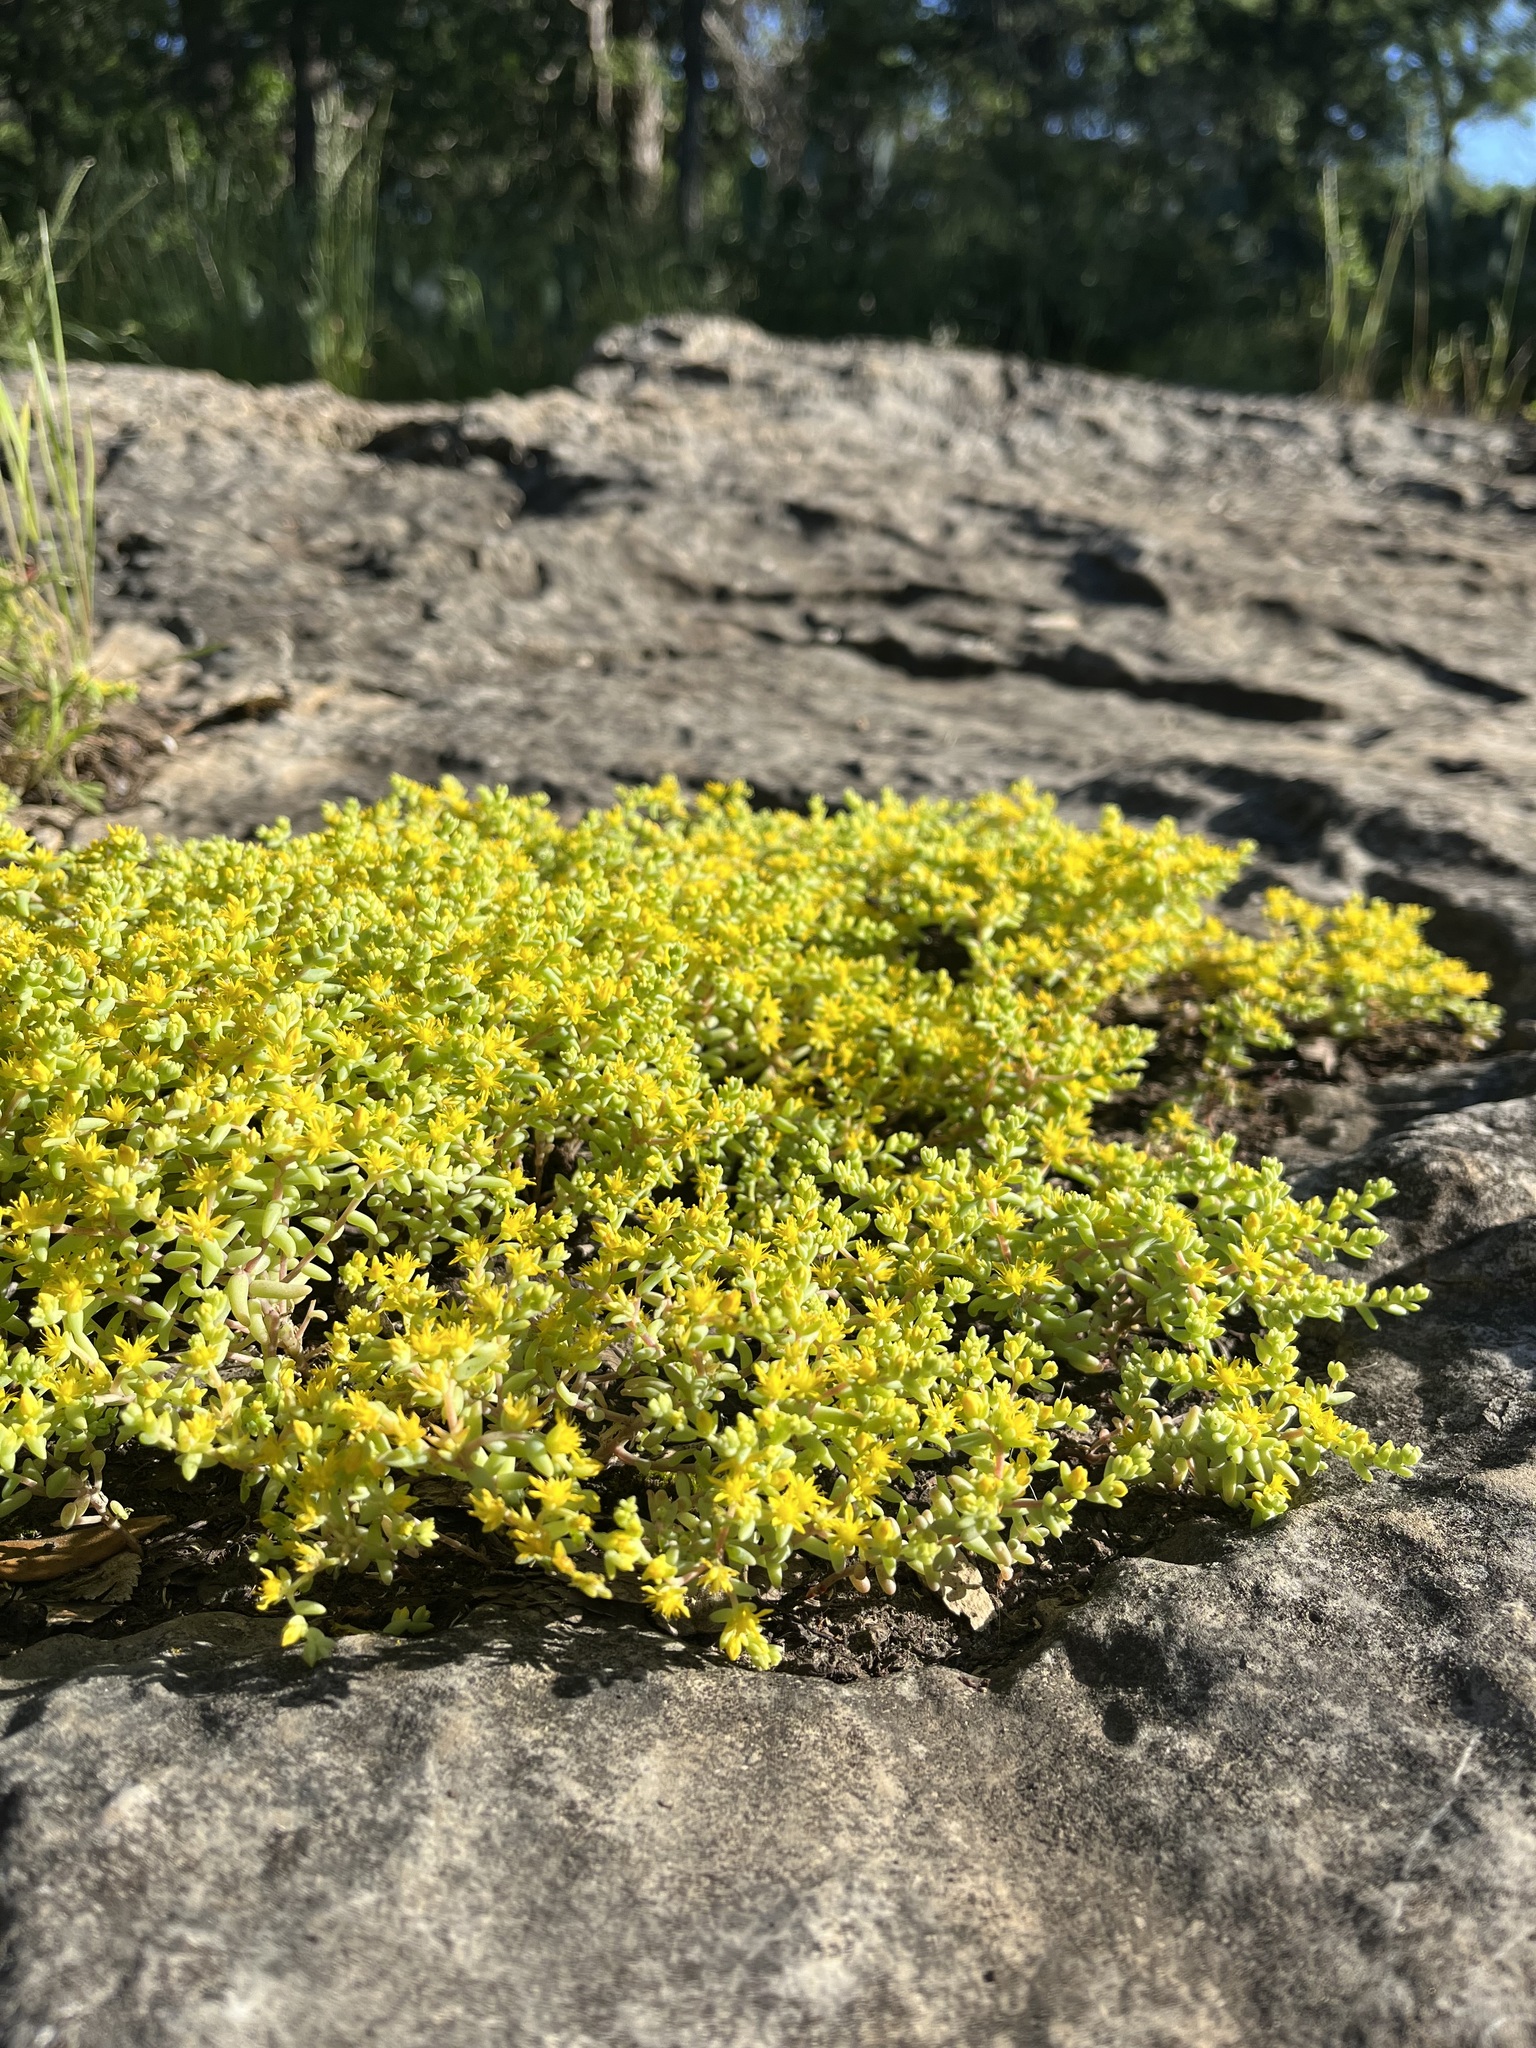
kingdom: Plantae
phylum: Tracheophyta
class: Magnoliopsida
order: Saxifragales
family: Crassulaceae
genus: Sedum
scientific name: Sedum nuttallii
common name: Yellow stonecrop
